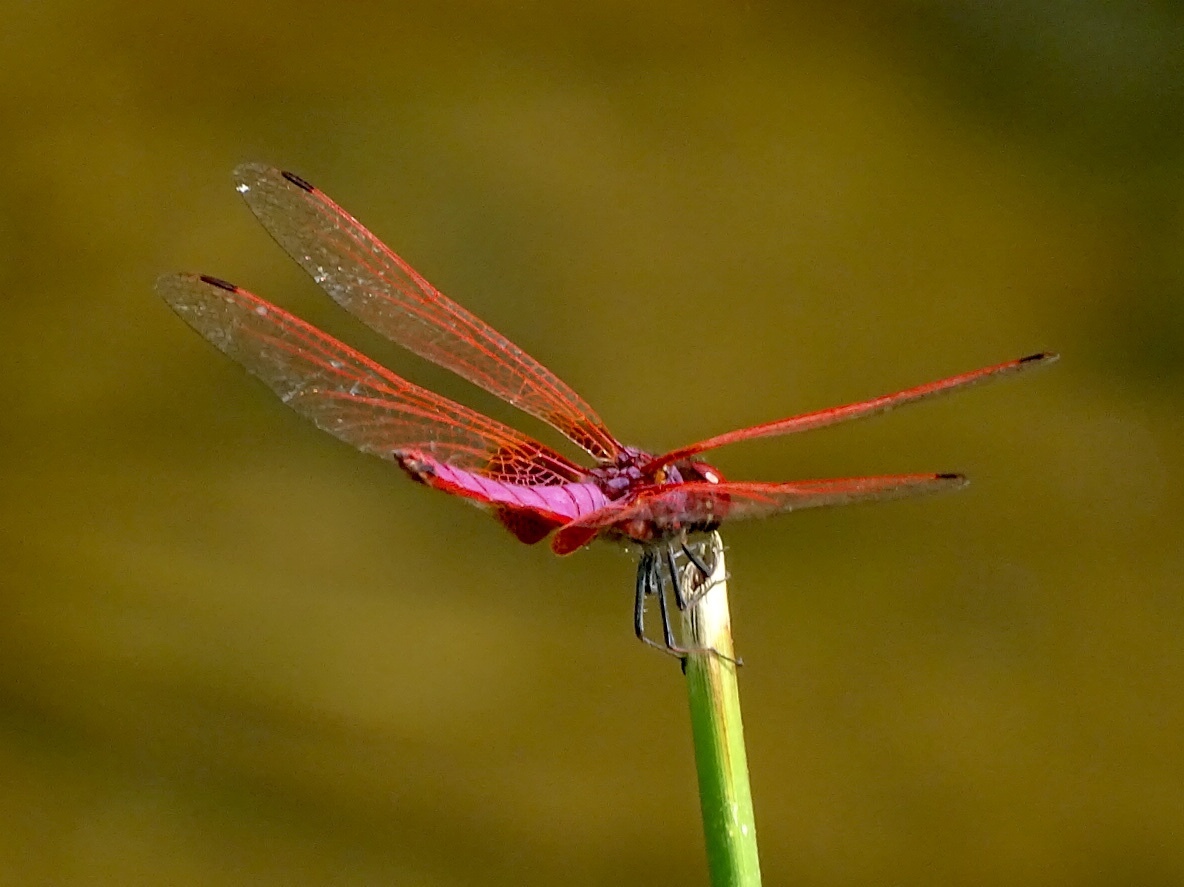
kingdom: Animalia
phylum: Arthropoda
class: Insecta
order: Odonata
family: Libellulidae
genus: Trithemis
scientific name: Trithemis aurora
